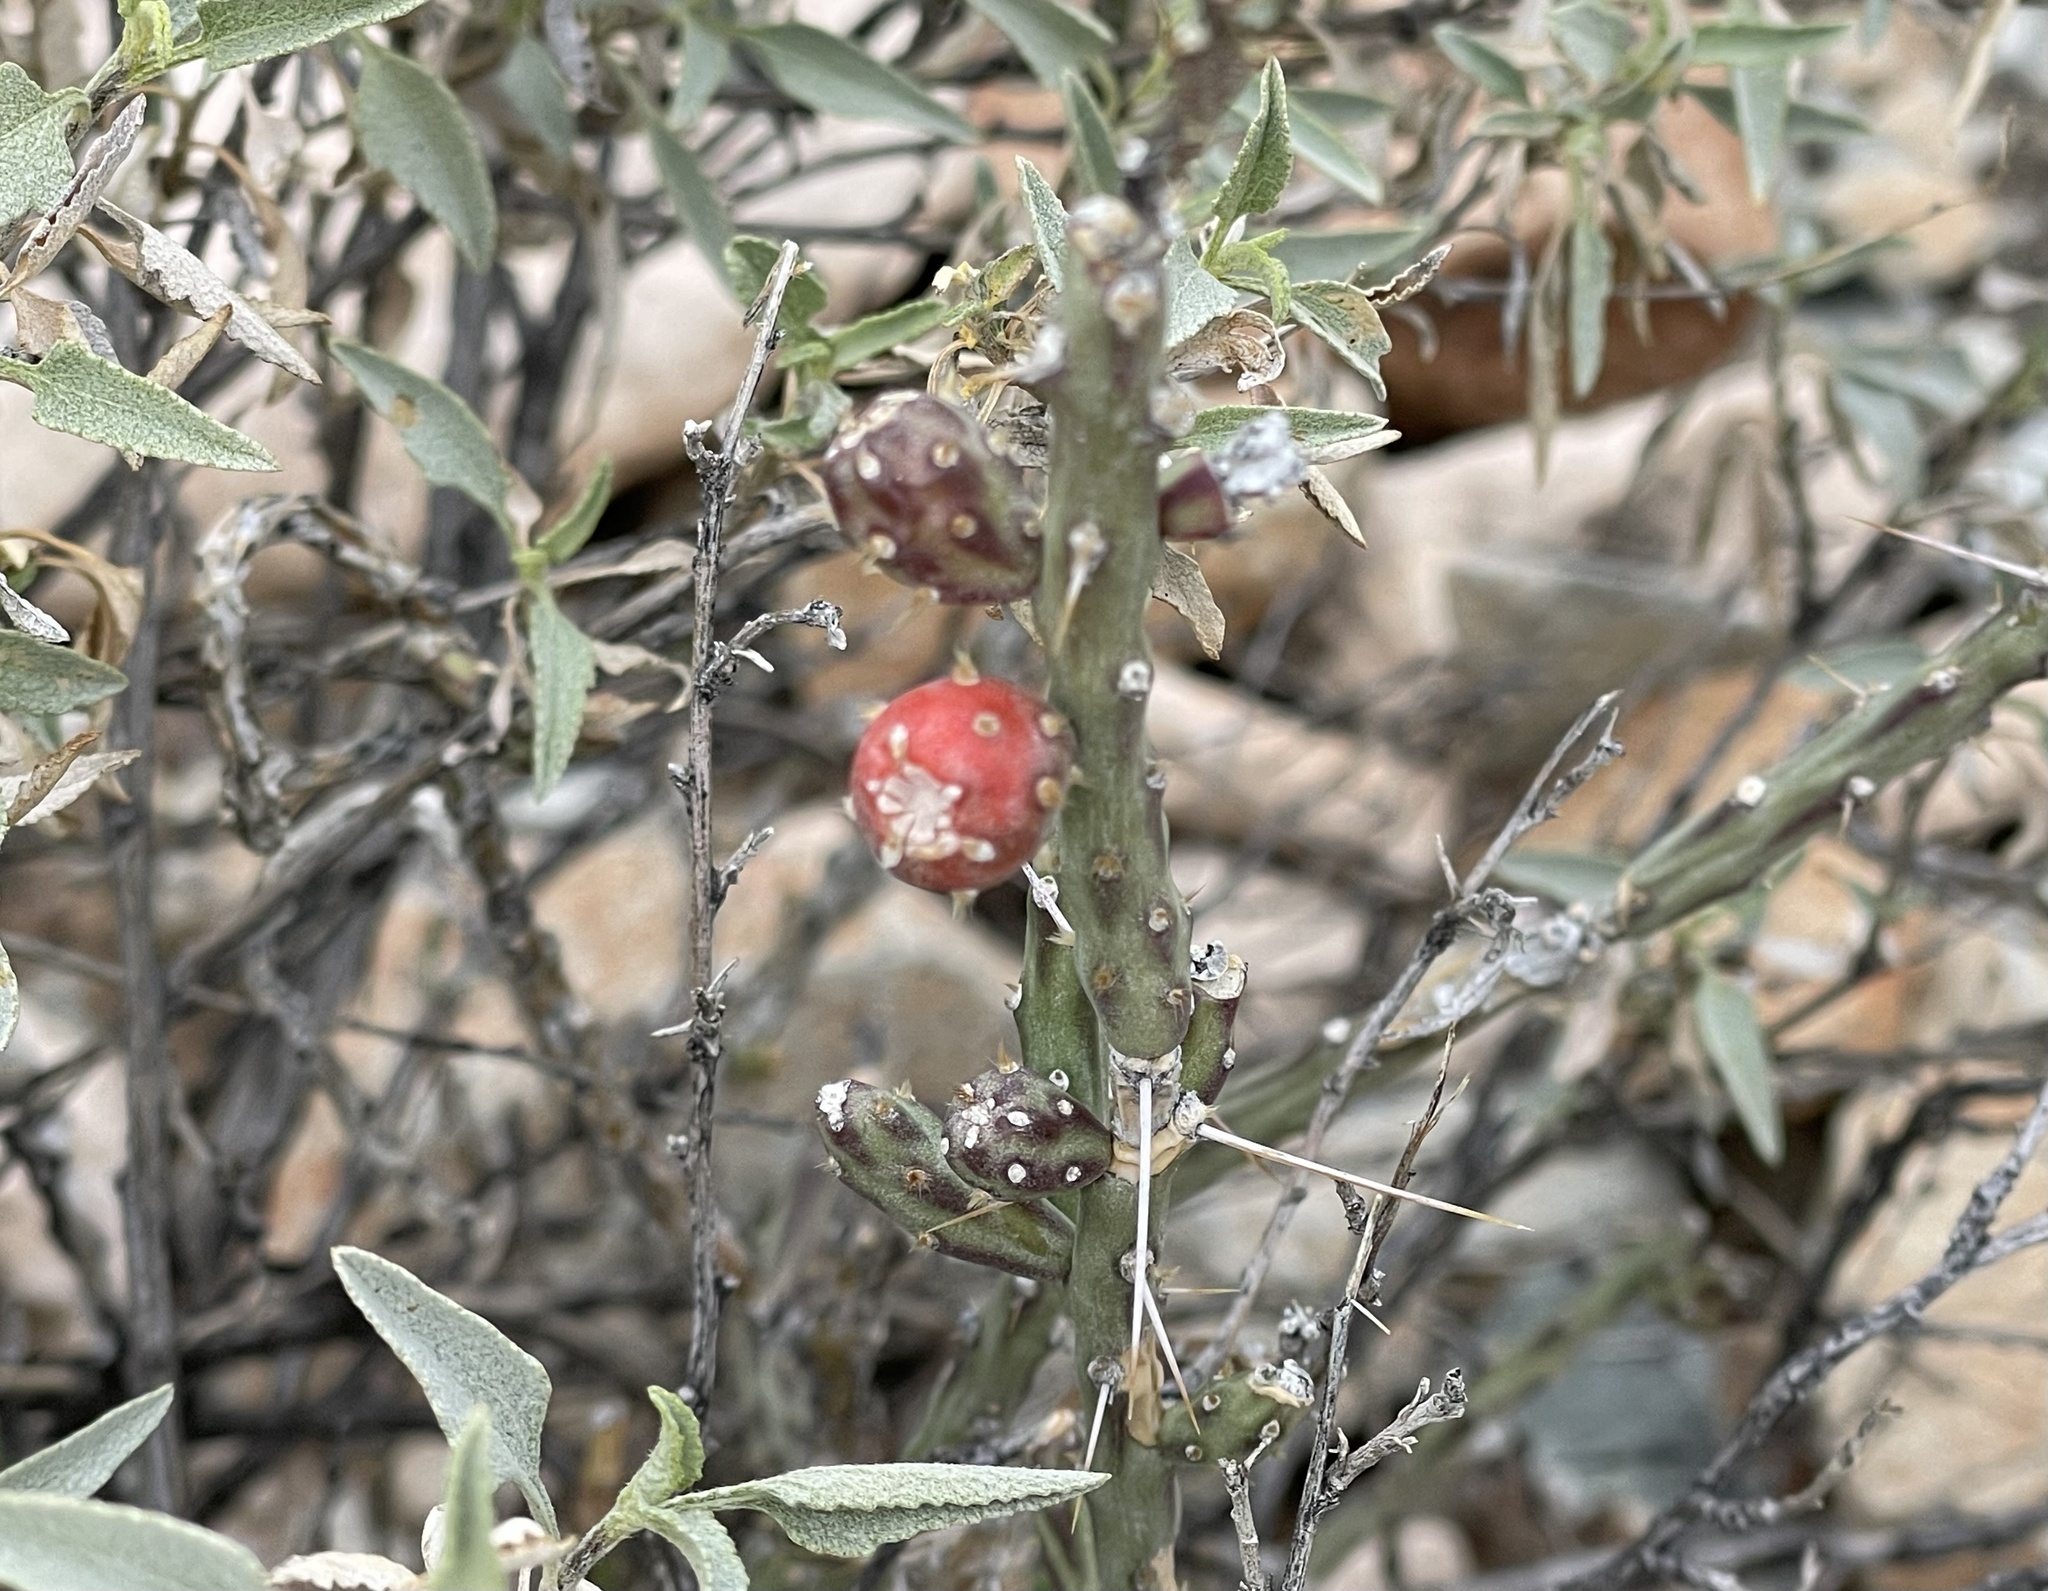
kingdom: Plantae
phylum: Tracheophyta
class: Magnoliopsida
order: Caryophyllales
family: Cactaceae
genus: Cylindropuntia
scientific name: Cylindropuntia leptocaulis
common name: Christmas cactus
